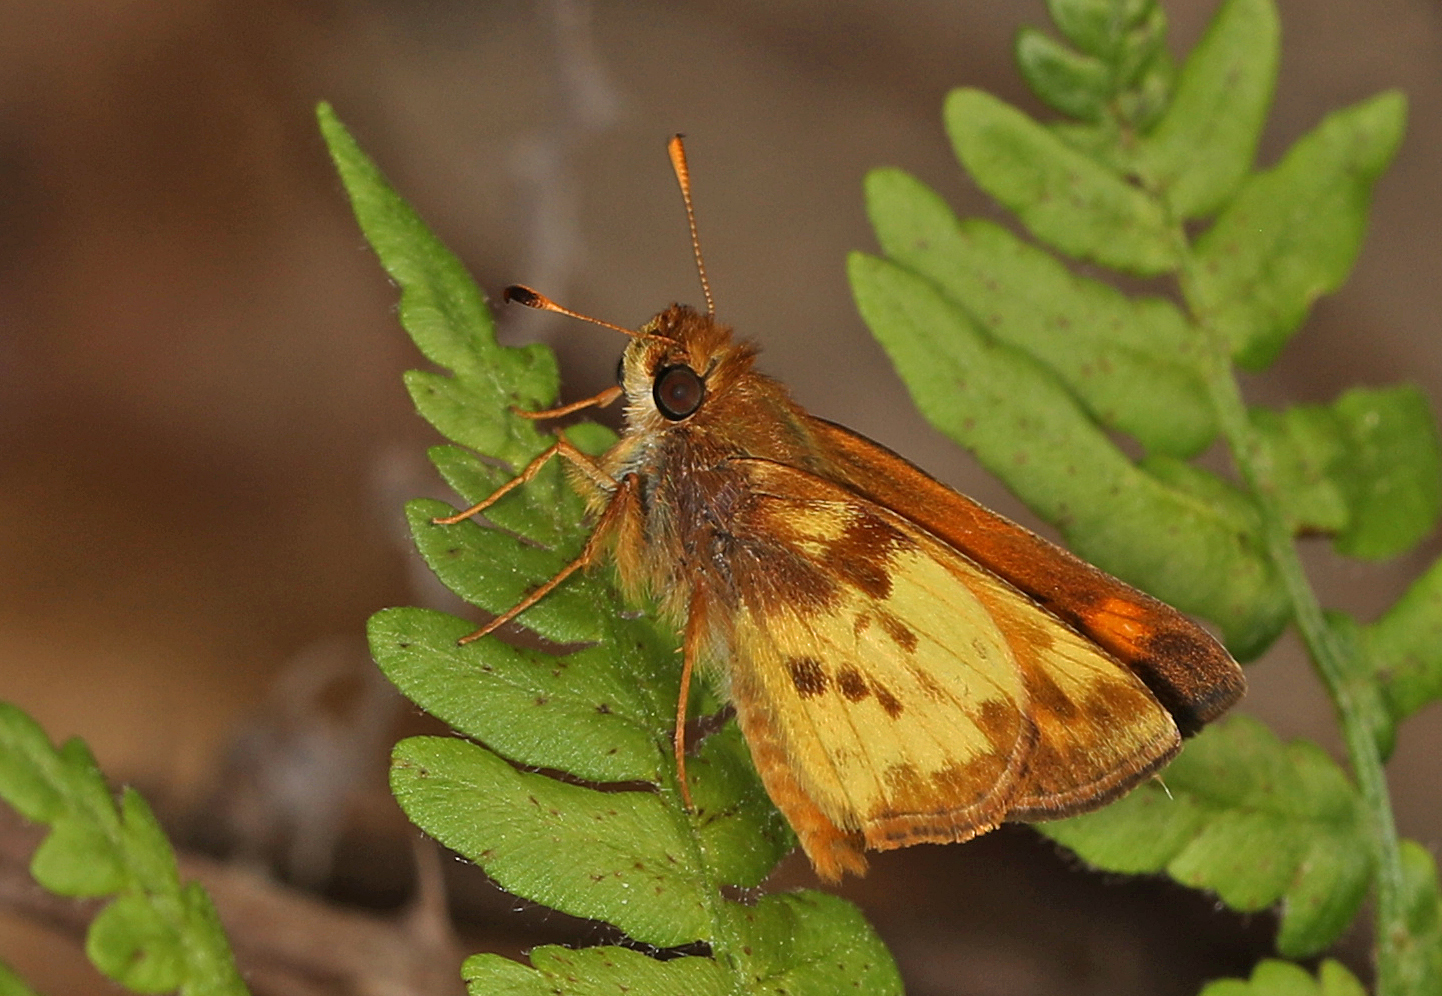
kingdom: Animalia
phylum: Arthropoda
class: Insecta
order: Lepidoptera
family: Hesperiidae
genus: Lon
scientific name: Lon zabulon
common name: Zabulon skipper
